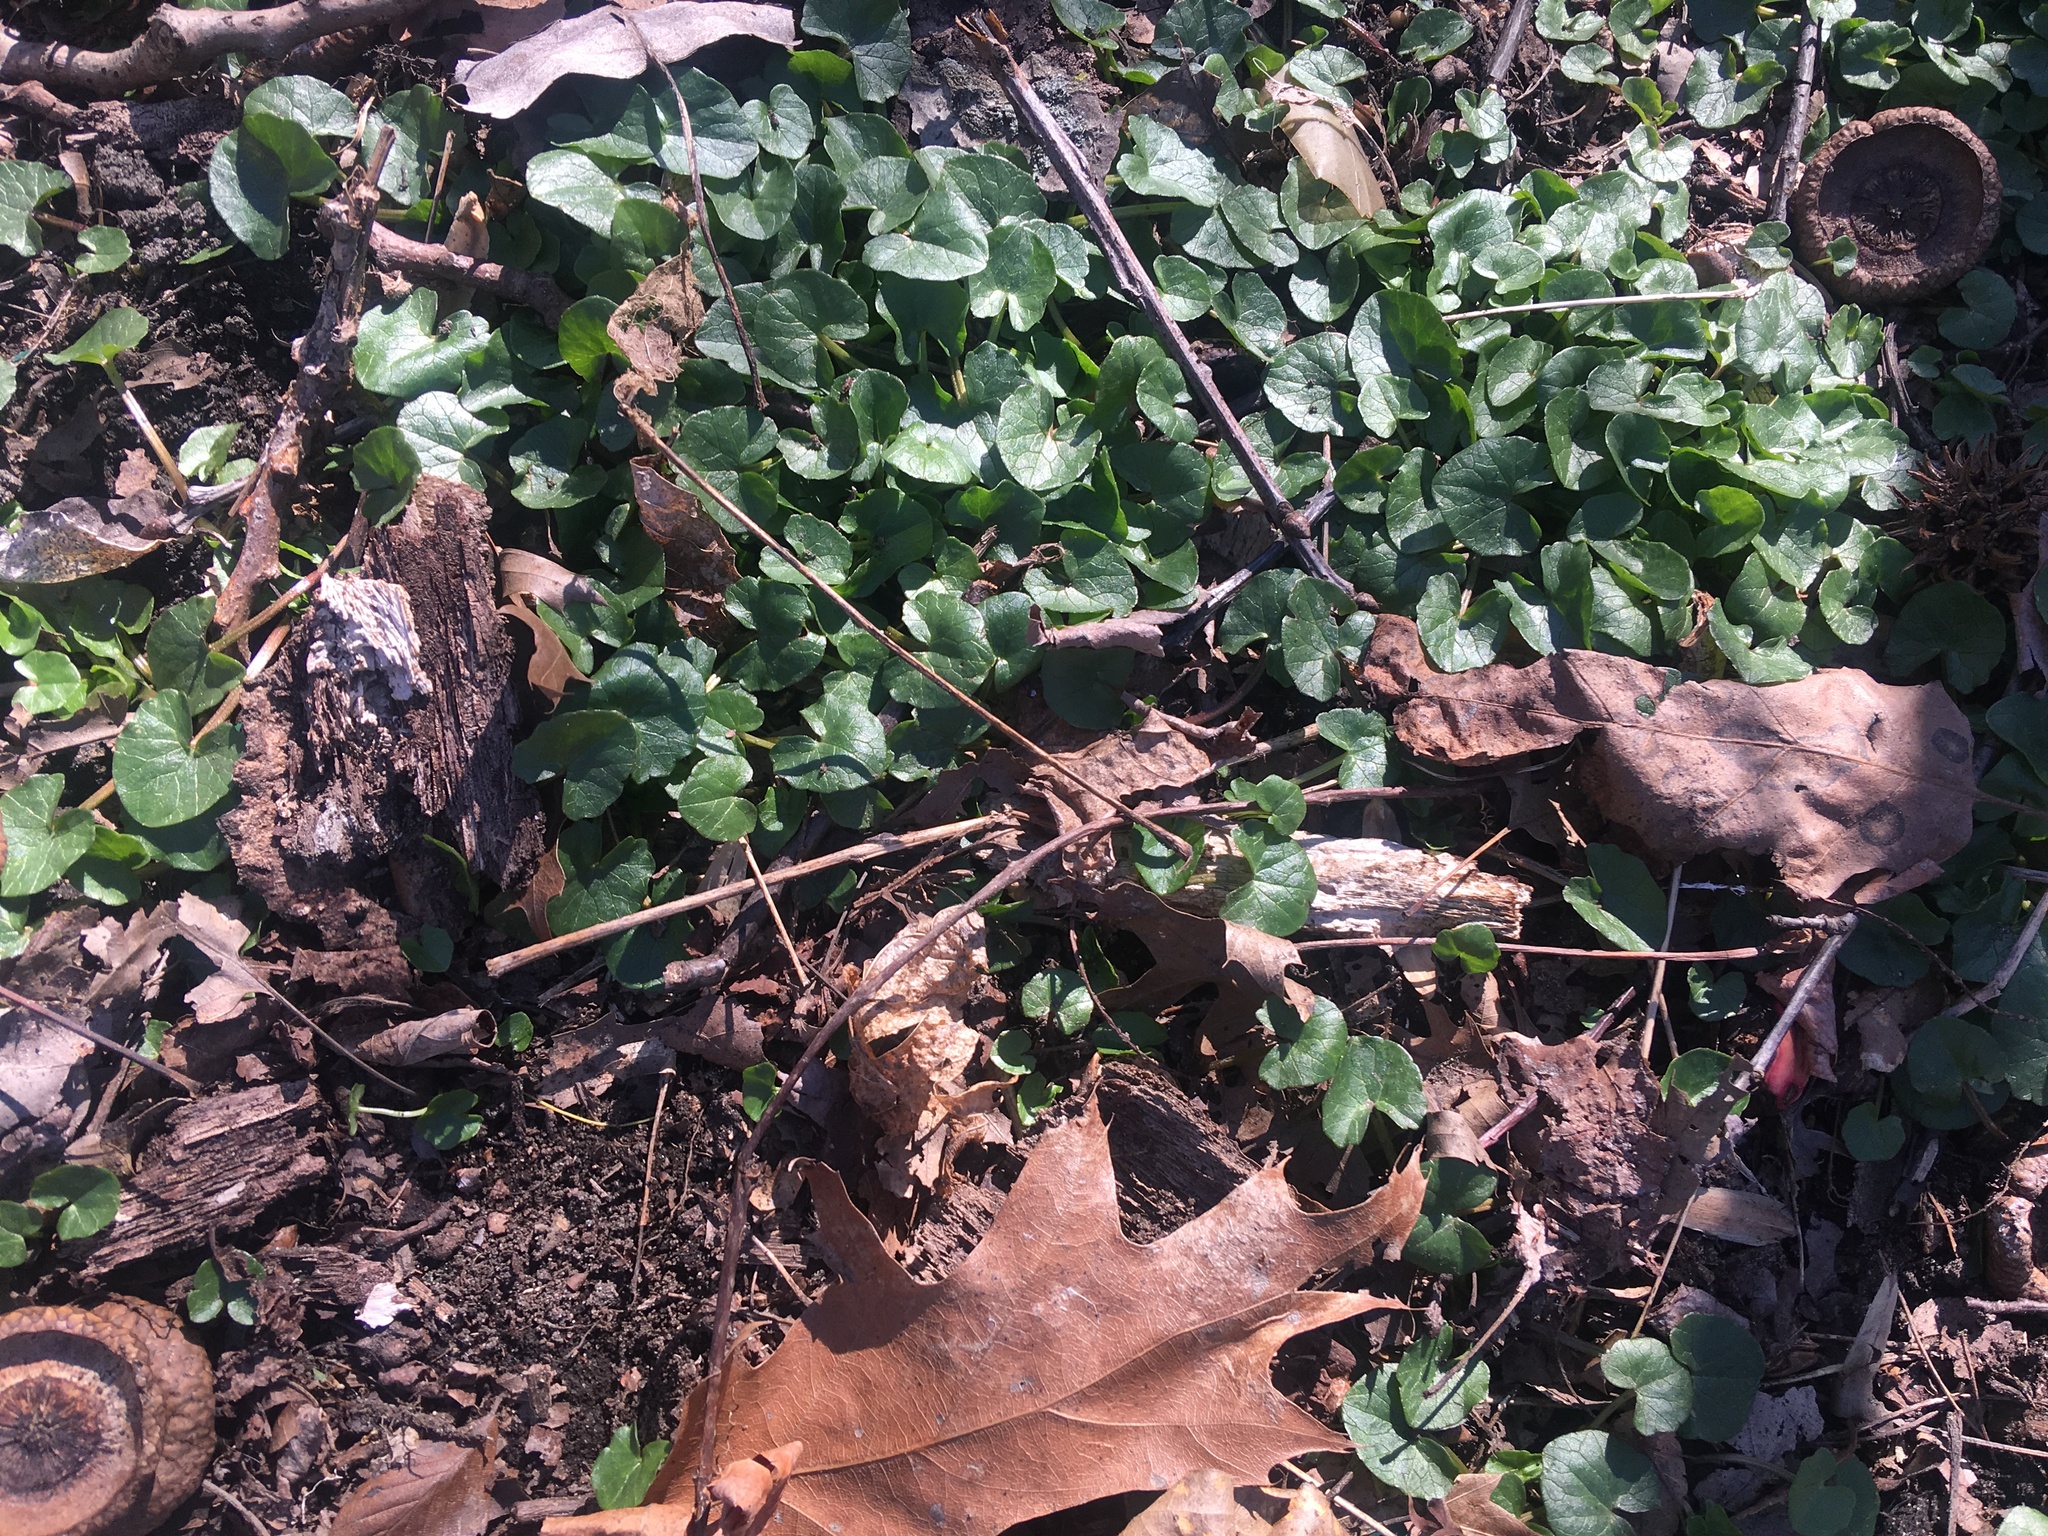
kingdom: Plantae
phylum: Tracheophyta
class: Magnoliopsida
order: Ranunculales
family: Ranunculaceae
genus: Ficaria
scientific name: Ficaria verna
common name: Lesser celandine
